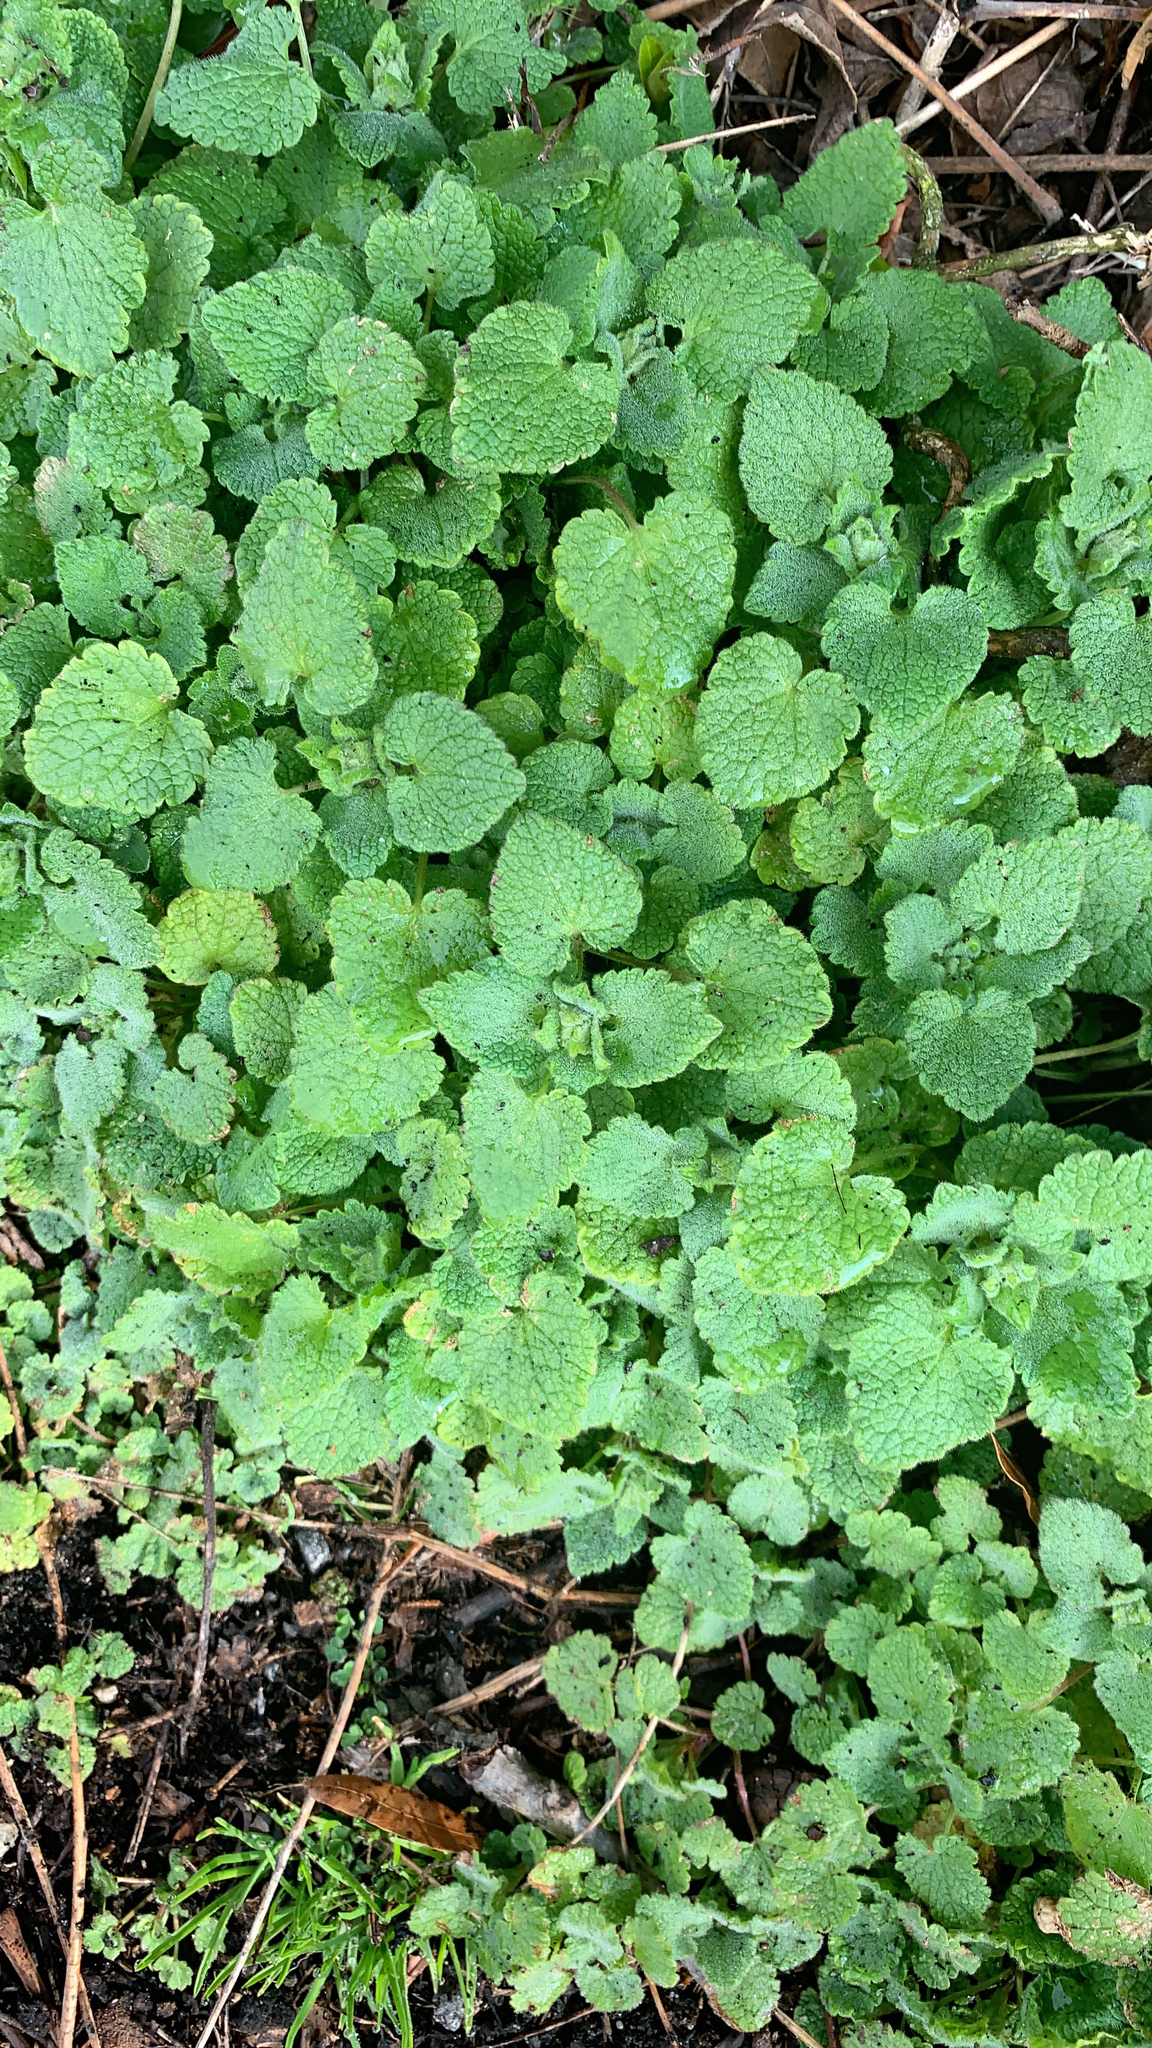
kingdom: Plantae
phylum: Tracheophyta
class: Magnoliopsida
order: Lamiales
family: Lamiaceae
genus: Lamium
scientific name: Lamium purpureum
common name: Red dead-nettle
